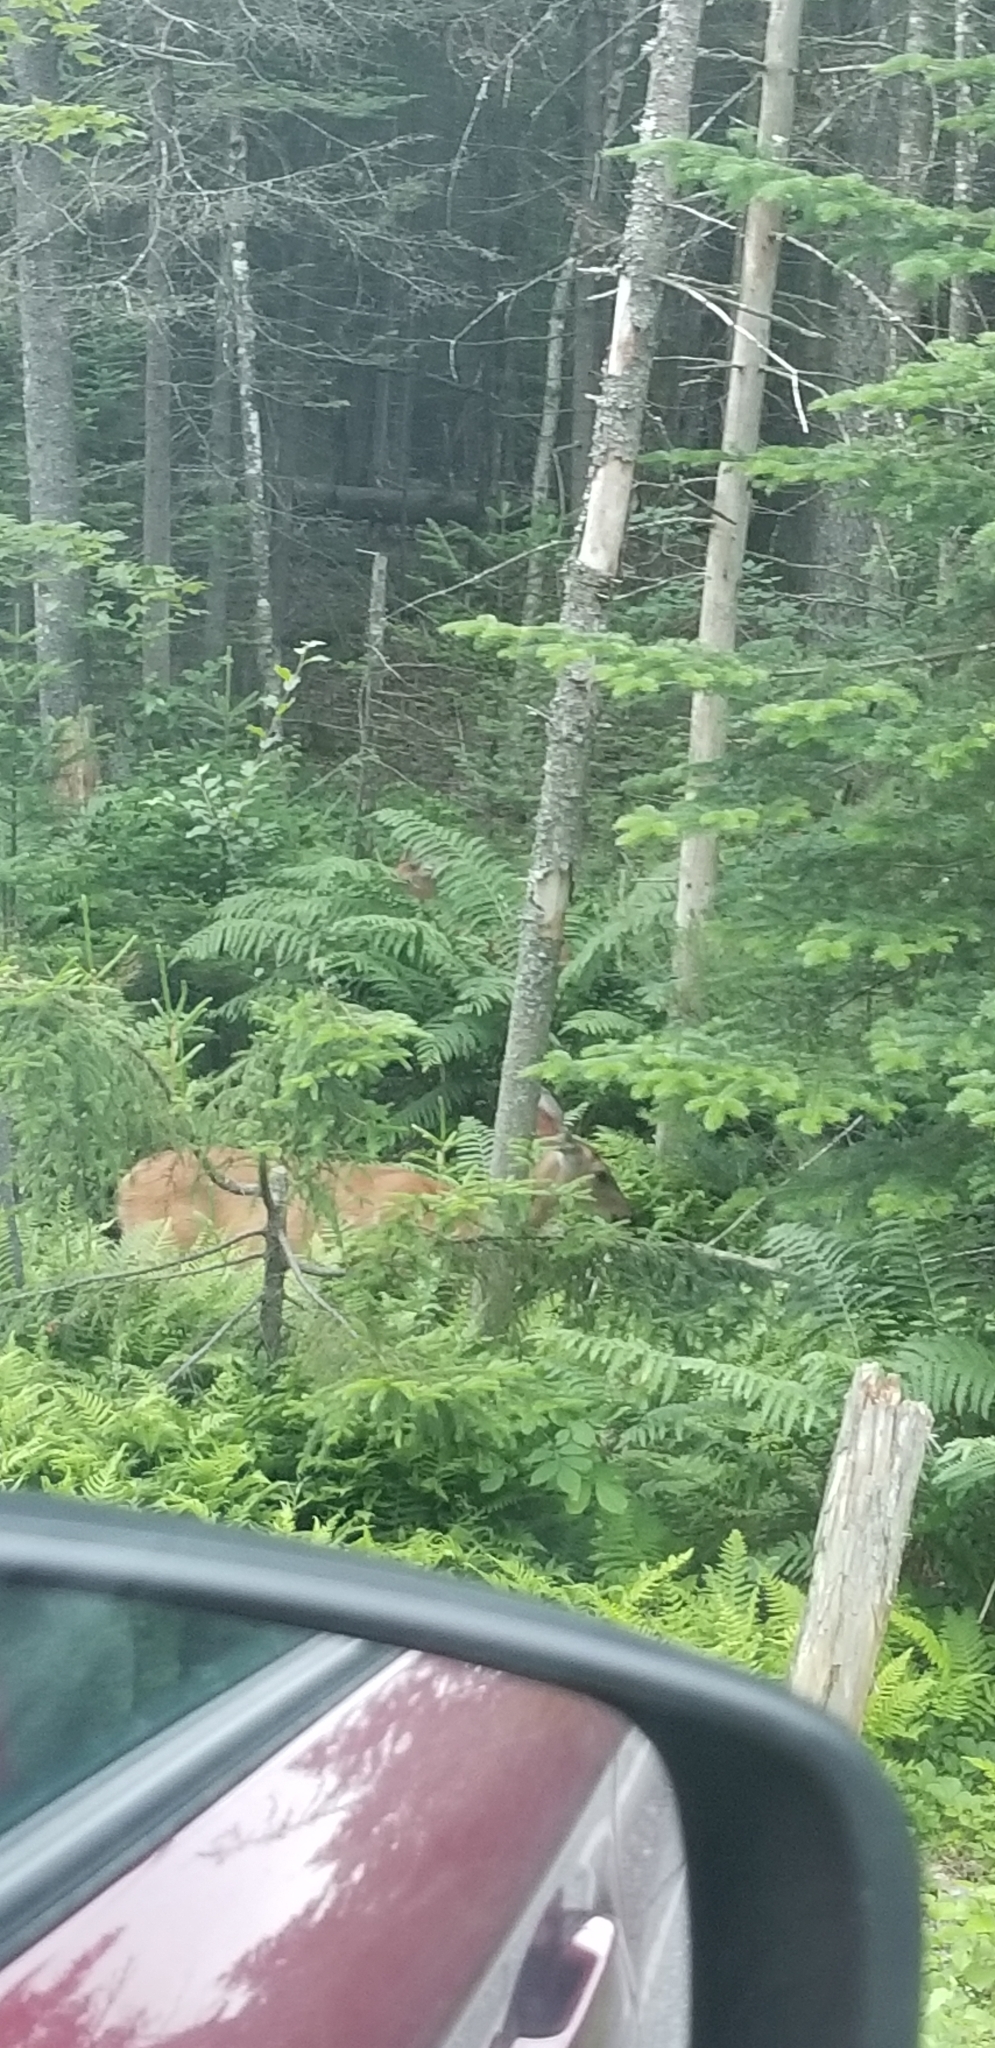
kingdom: Animalia
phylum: Chordata
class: Mammalia
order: Artiodactyla
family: Cervidae
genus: Odocoileus
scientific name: Odocoileus virginianus
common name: White-tailed deer
